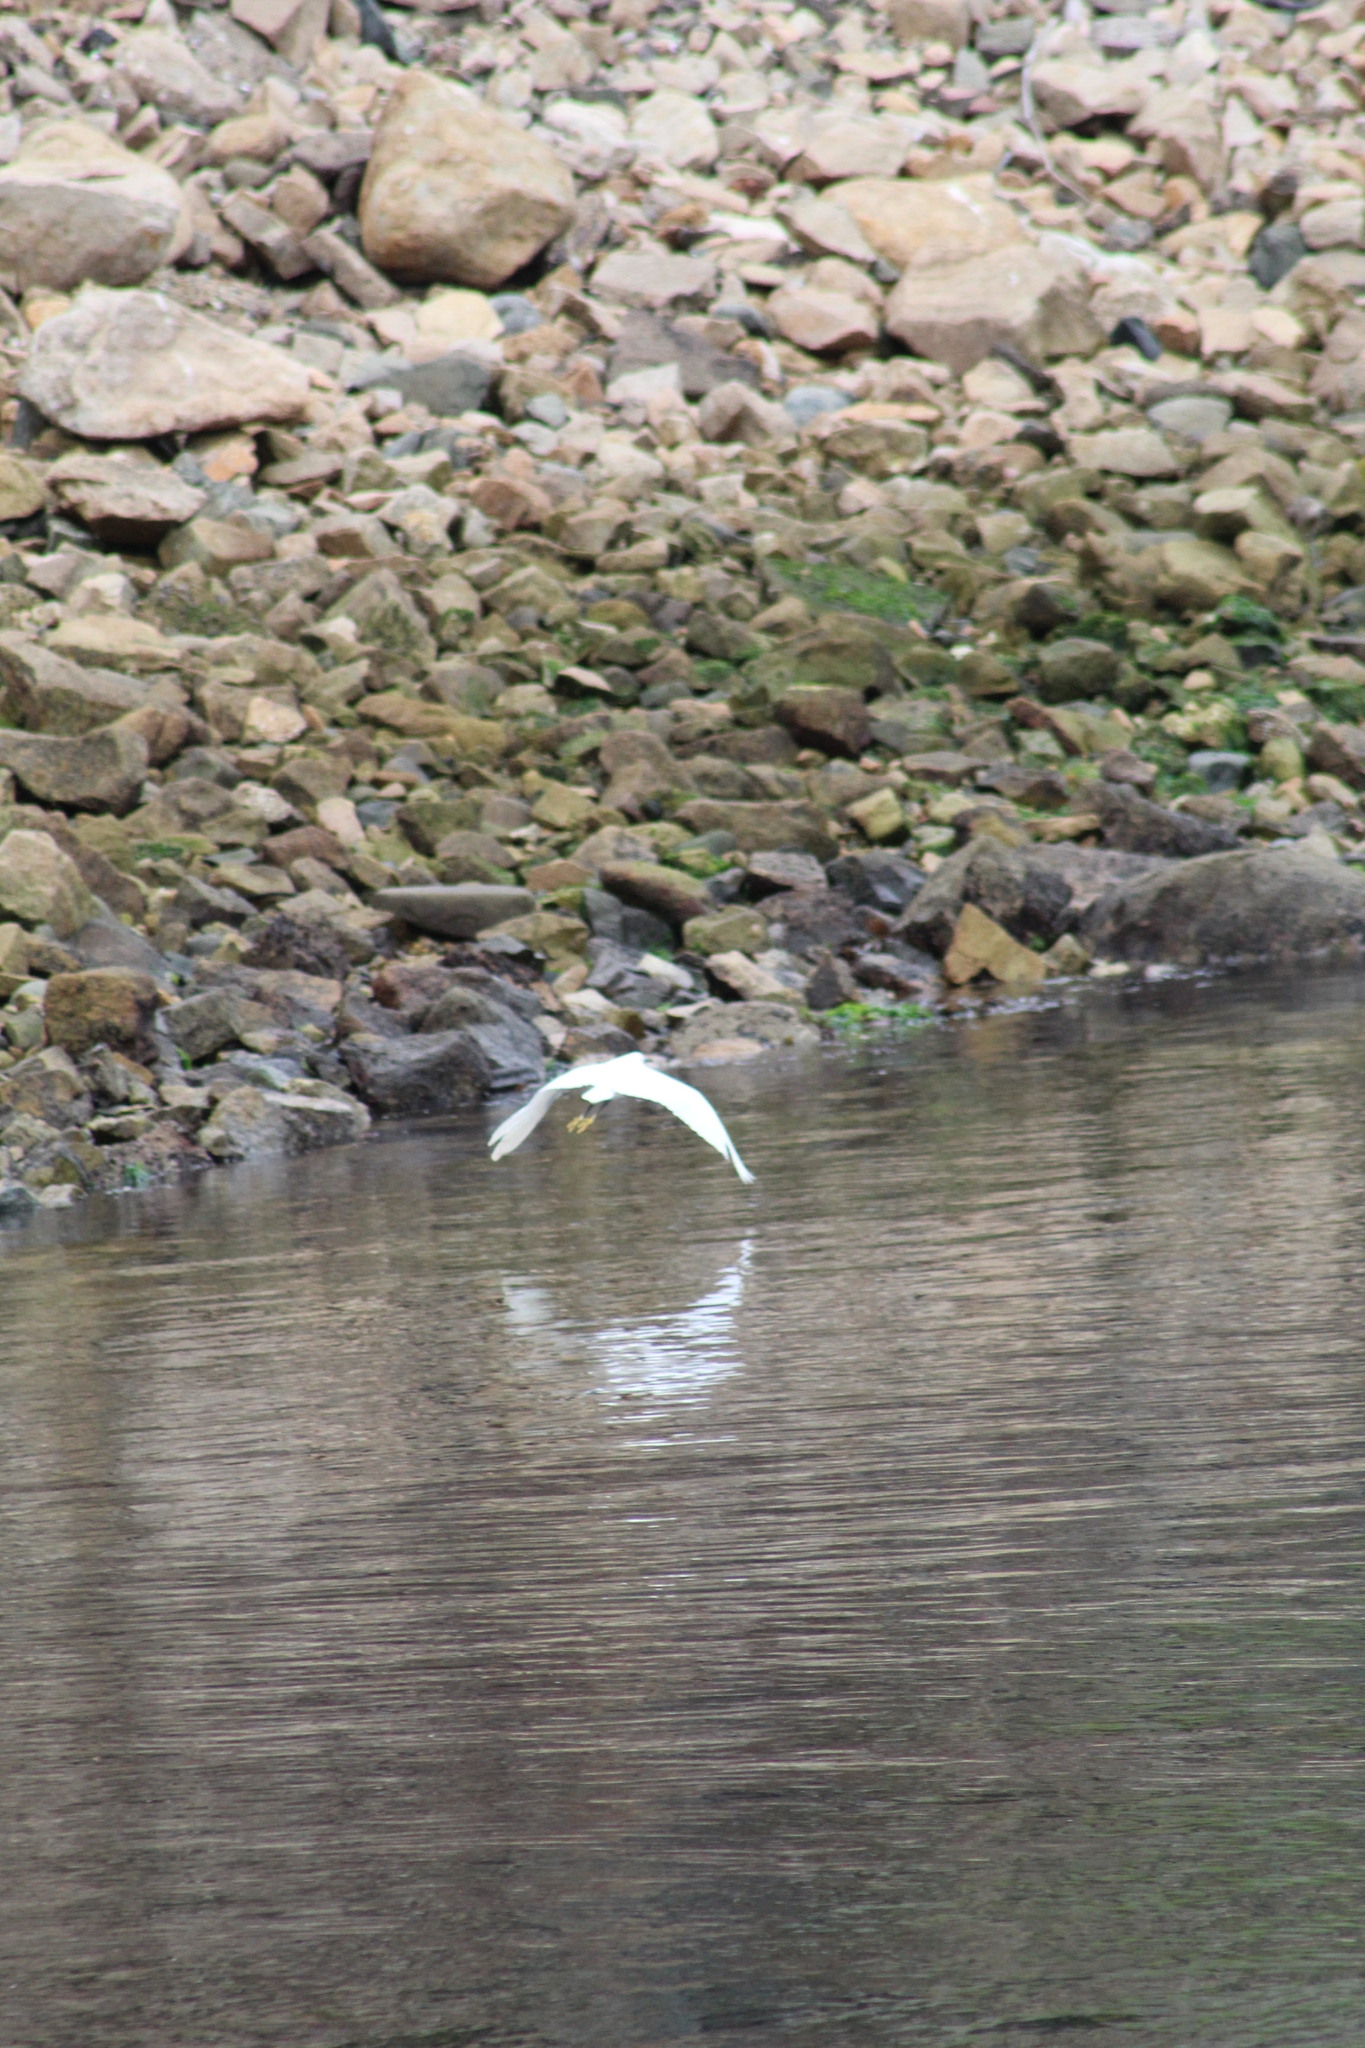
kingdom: Animalia
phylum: Chordata
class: Aves
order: Pelecaniformes
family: Ardeidae
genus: Egretta
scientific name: Egretta thula
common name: Snowy egret
